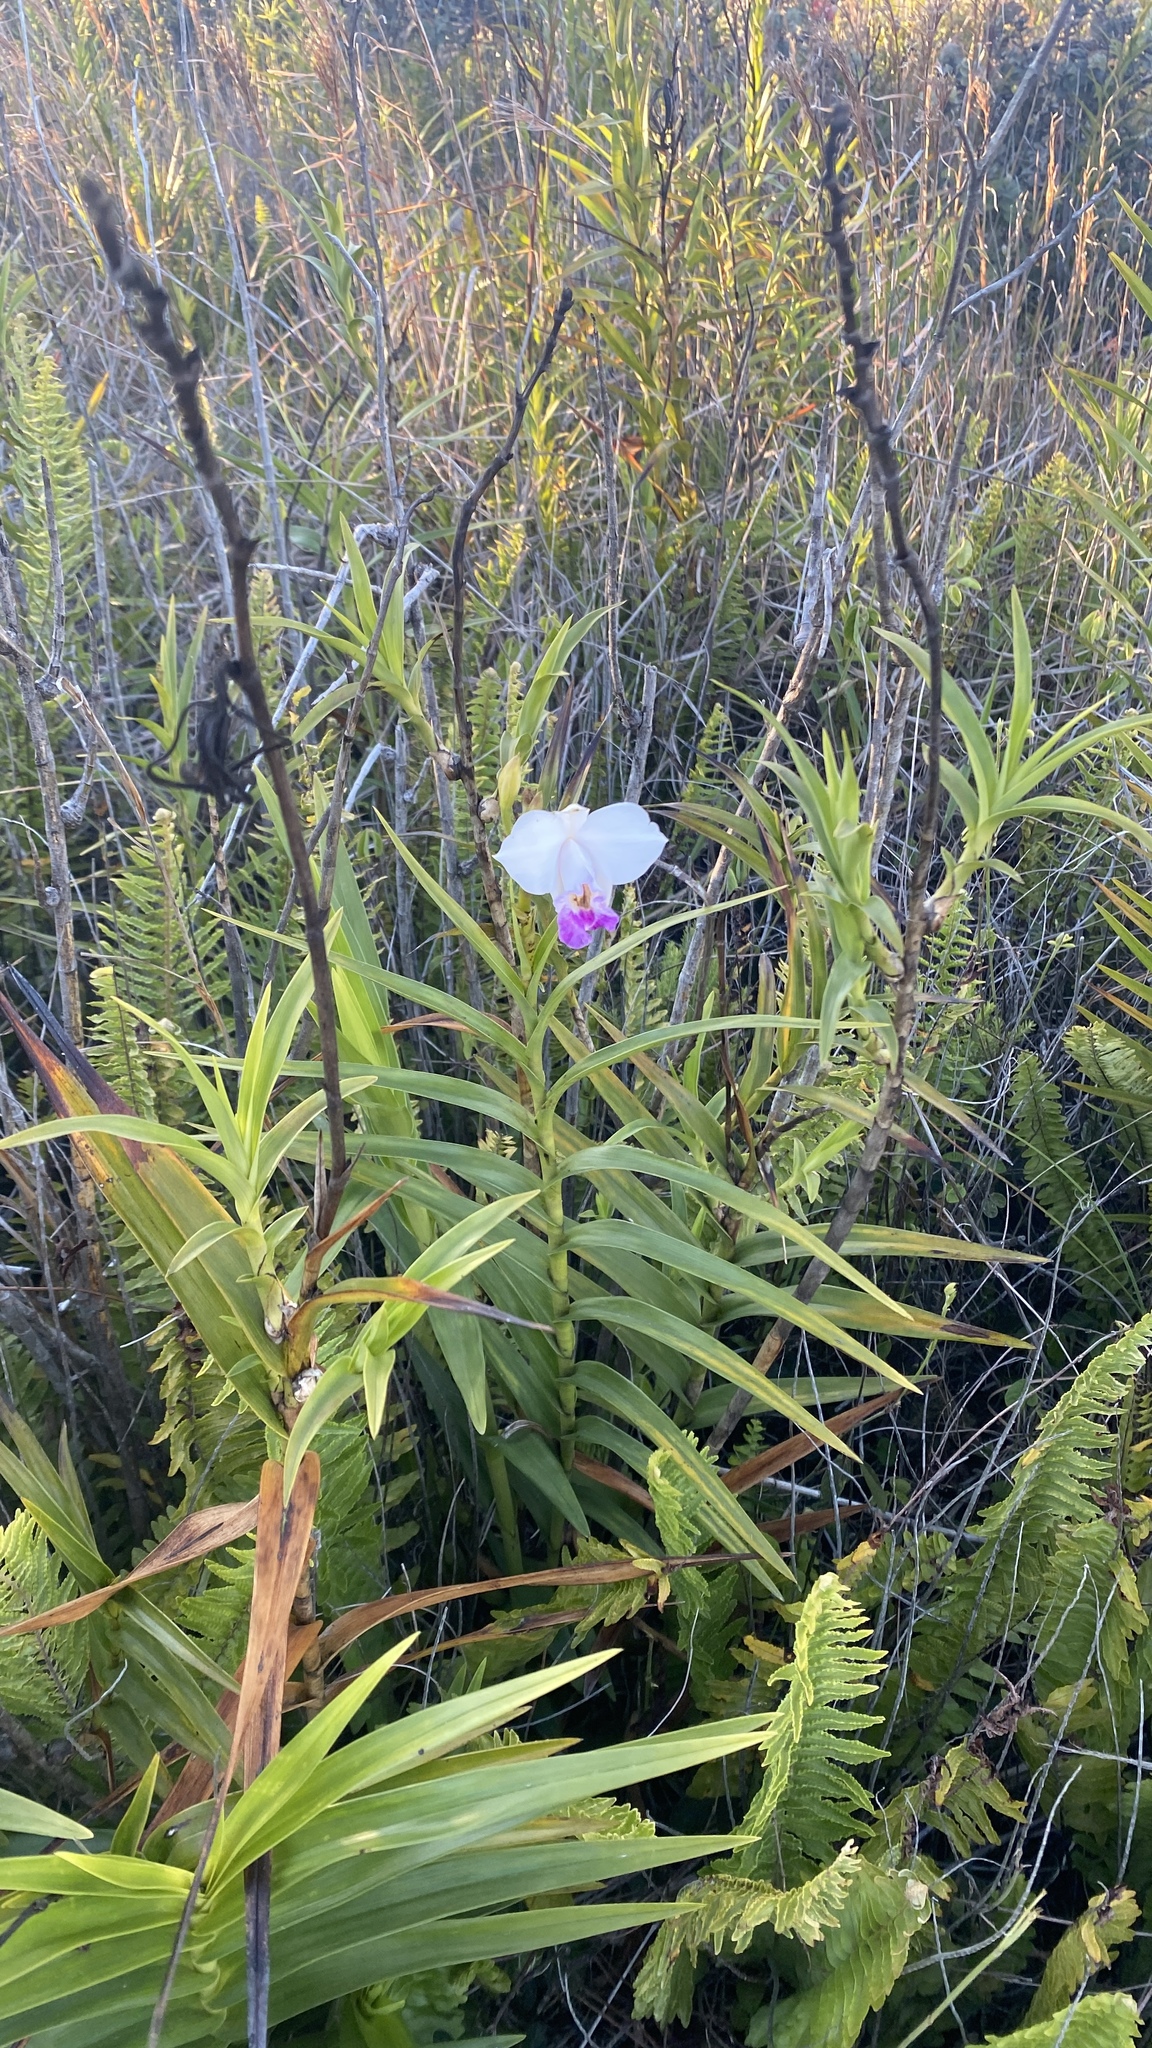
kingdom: Plantae
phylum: Tracheophyta
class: Liliopsida
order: Asparagales
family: Orchidaceae
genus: Arundina
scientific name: Arundina graminifolia
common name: Bamboo orchid
